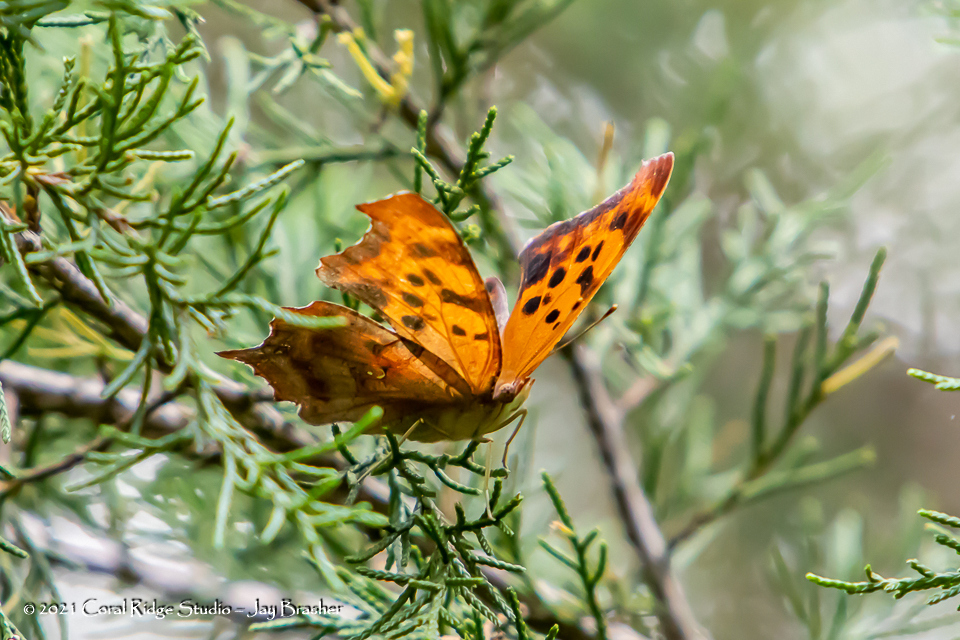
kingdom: Animalia
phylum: Arthropoda
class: Insecta
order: Lepidoptera
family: Nymphalidae
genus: Polygonia
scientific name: Polygonia interrogationis
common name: Question mark
